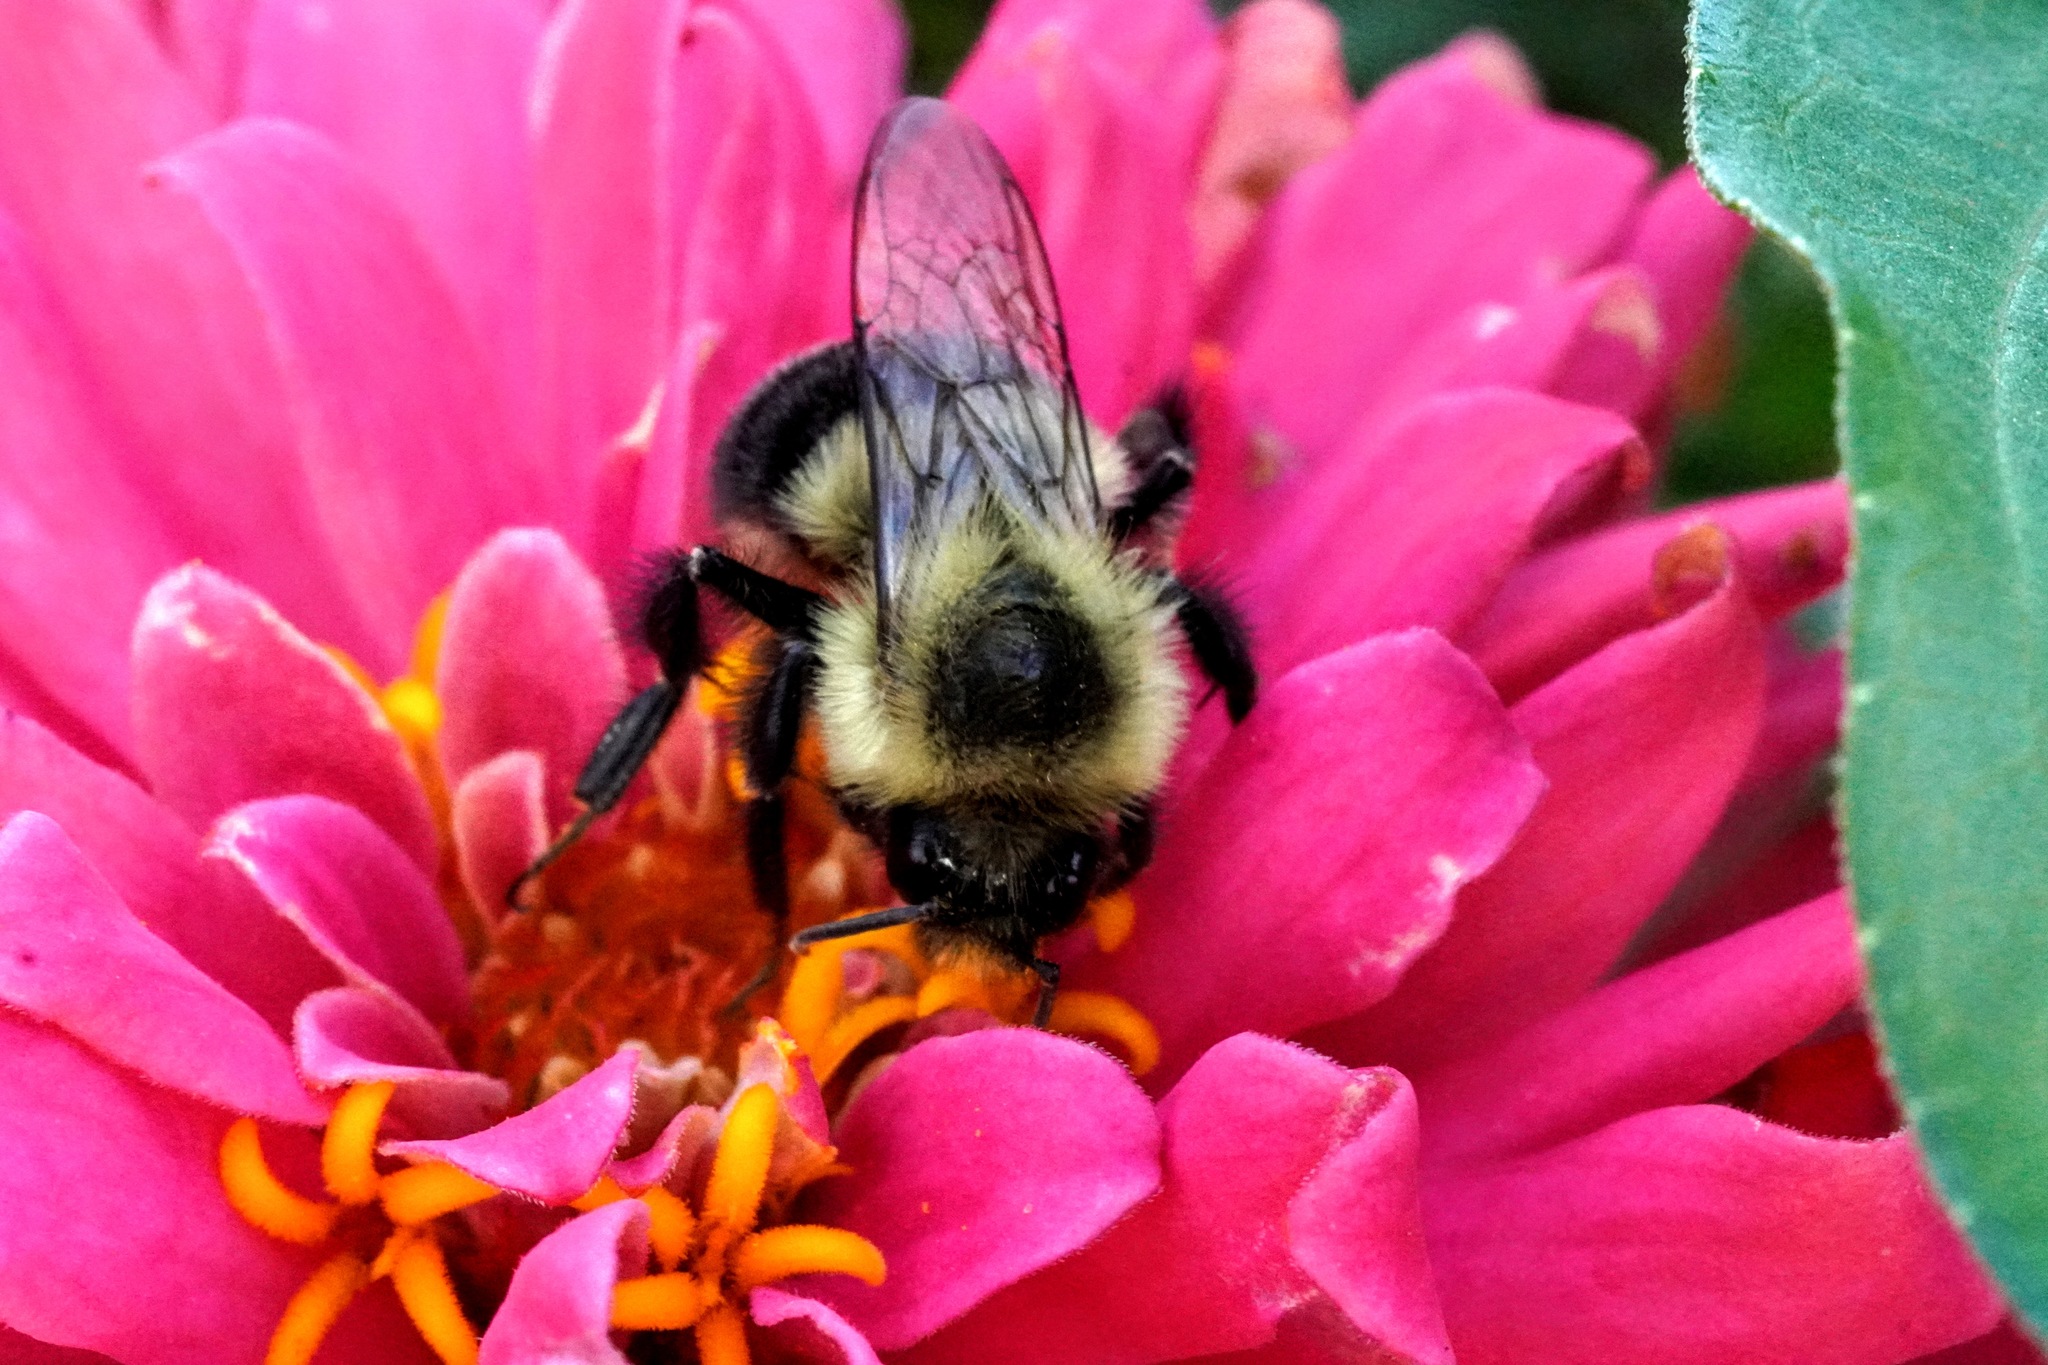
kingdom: Animalia
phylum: Arthropoda
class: Insecta
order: Hymenoptera
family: Apidae
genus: Bombus
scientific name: Bombus impatiens
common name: Common eastern bumble bee
